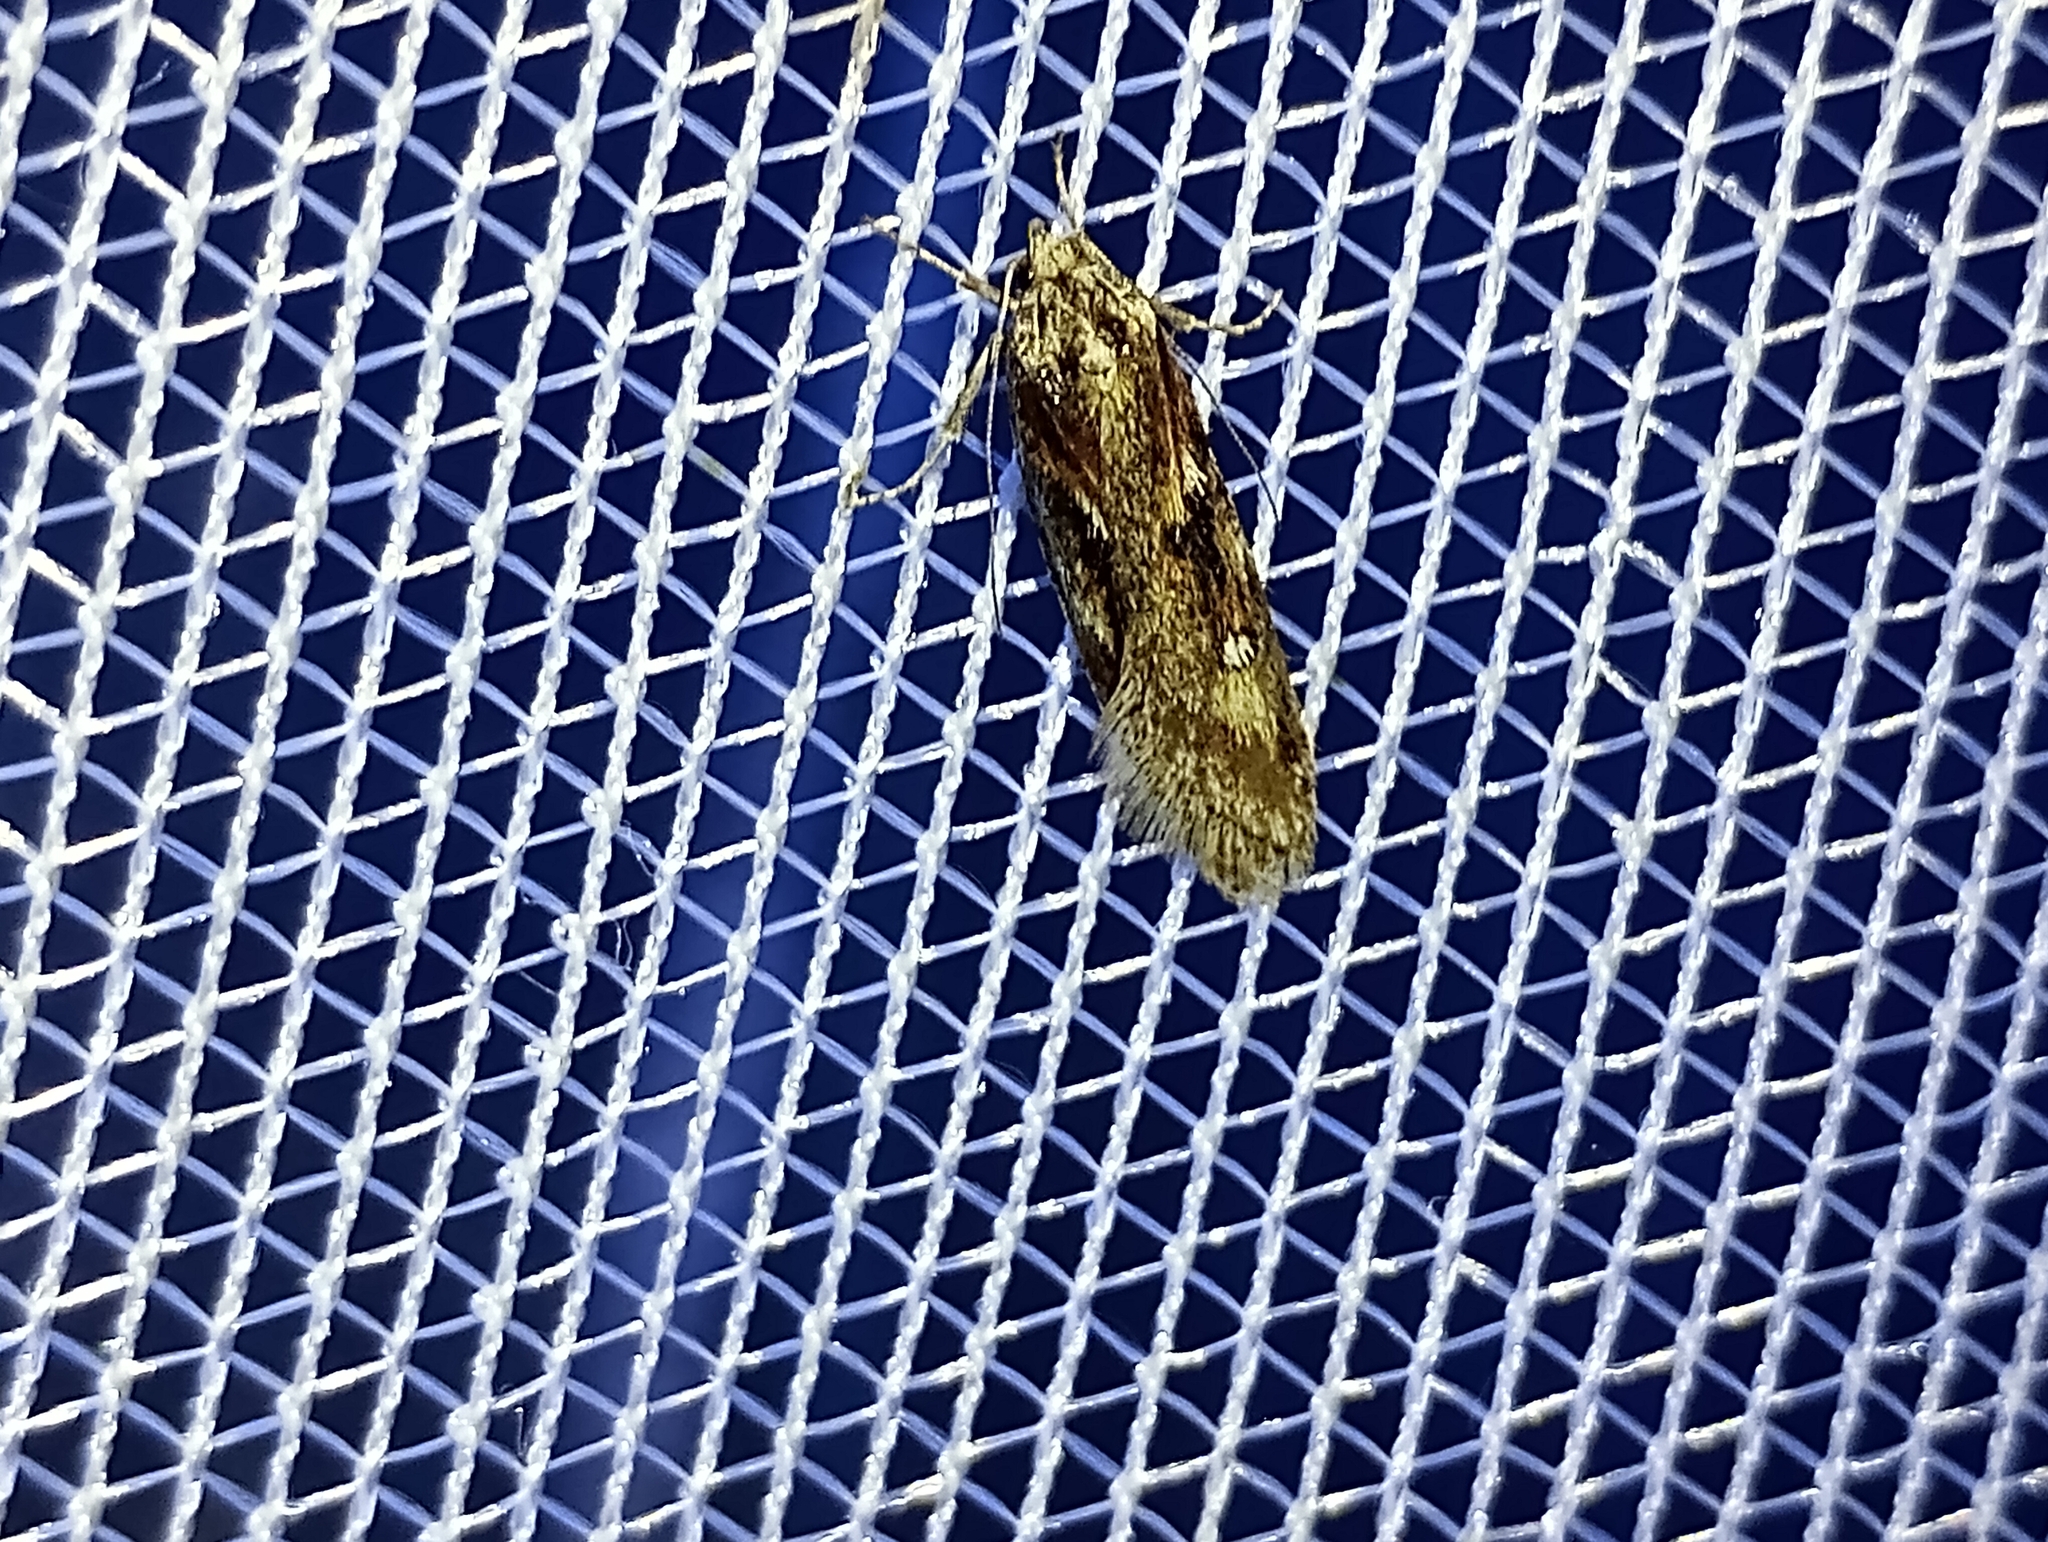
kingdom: Animalia
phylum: Arthropoda
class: Insecta
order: Lepidoptera
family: Depressariidae
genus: Semioscopis
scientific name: Semioscopis anella
